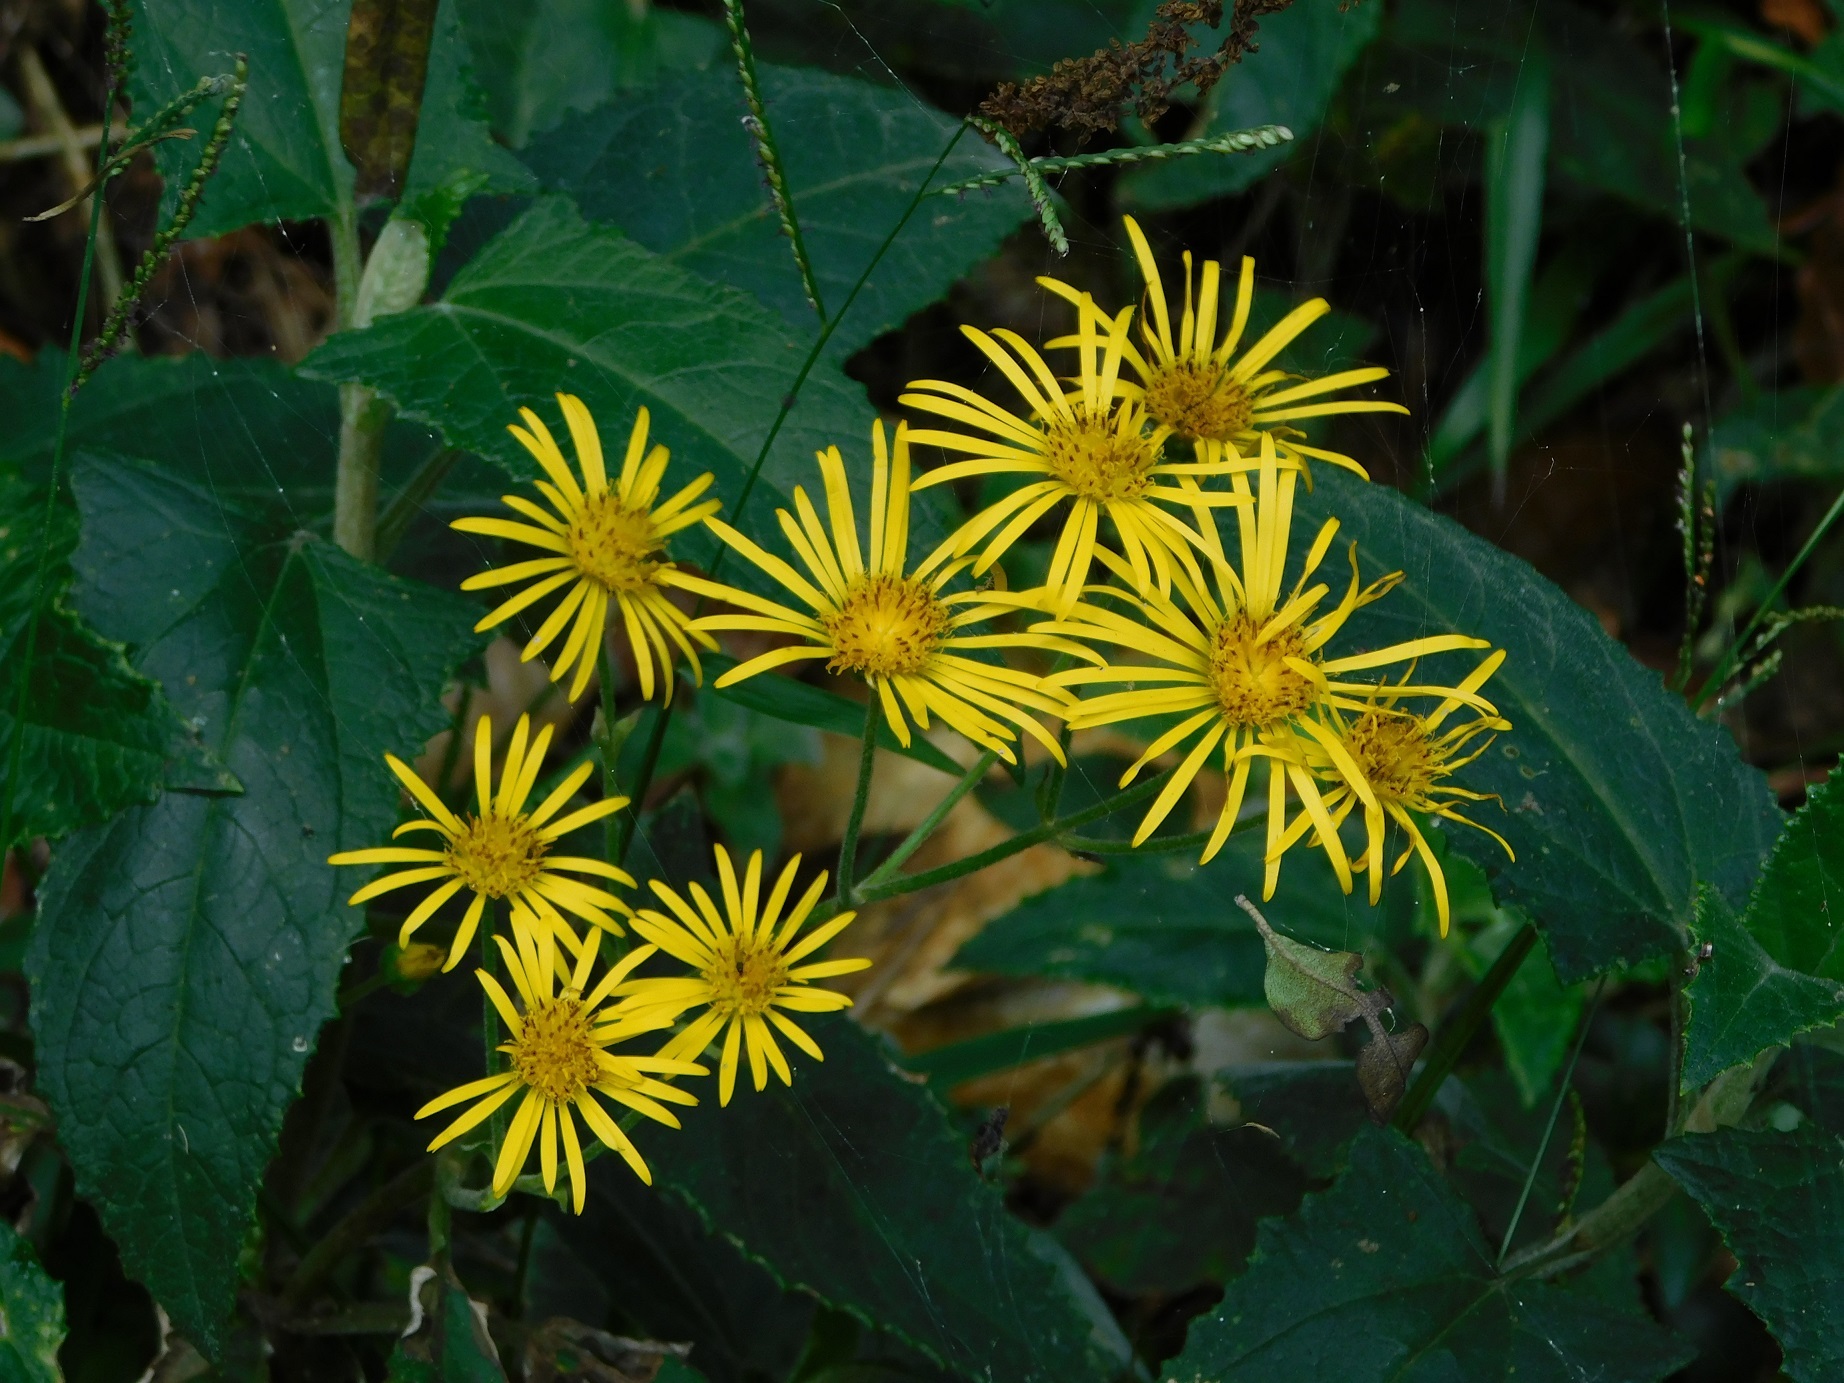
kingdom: Plantae
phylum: Tracheophyta
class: Magnoliopsida
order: Asterales
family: Asteraceae
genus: Munnozia
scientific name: Munnozia senecionidis
